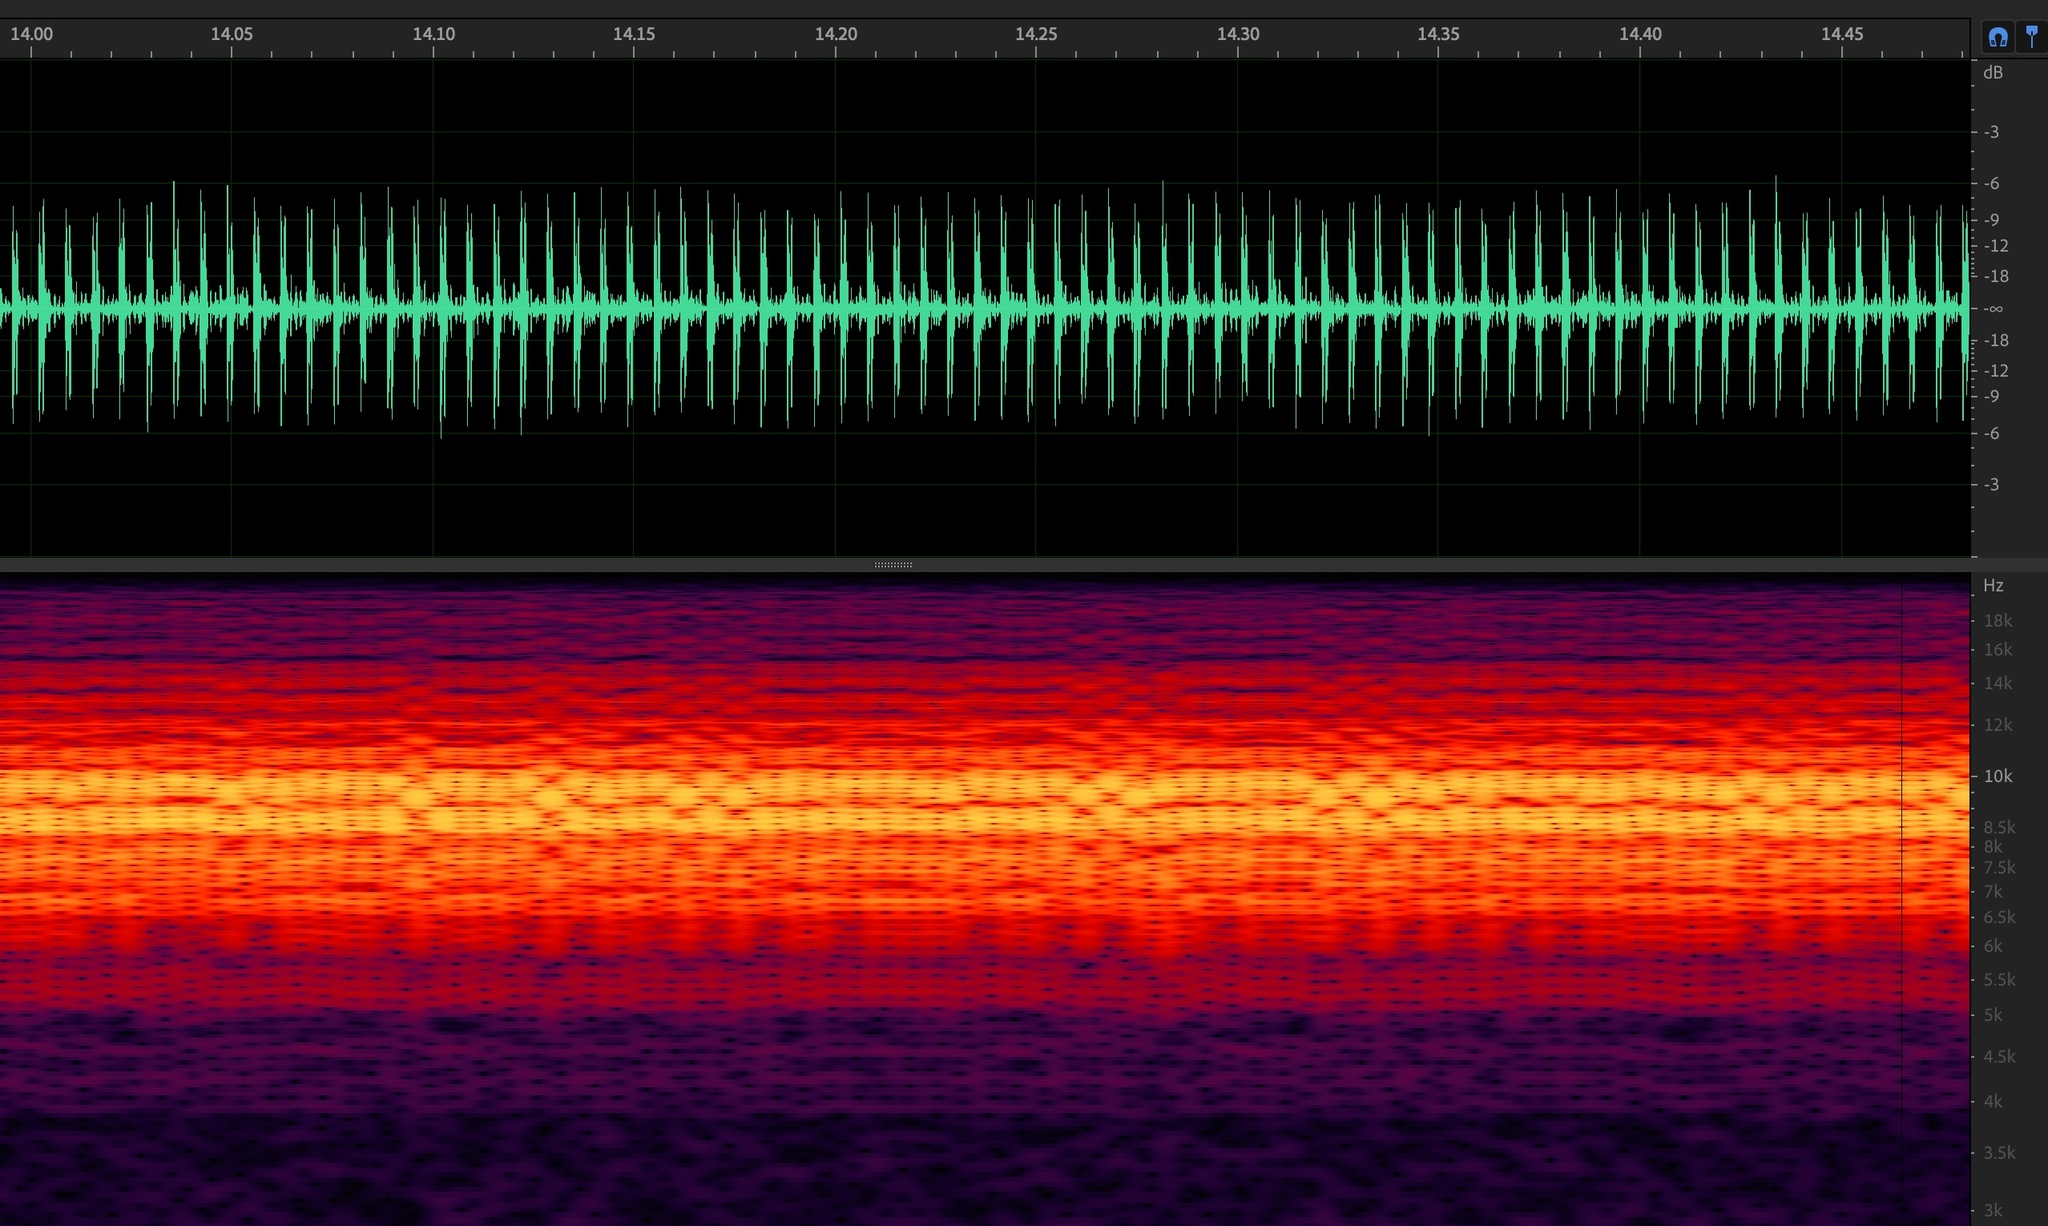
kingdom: Animalia
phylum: Arthropoda
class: Insecta
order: Hemiptera
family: Cicadidae
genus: Diceroprocta
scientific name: Diceroprocta eugraphica
